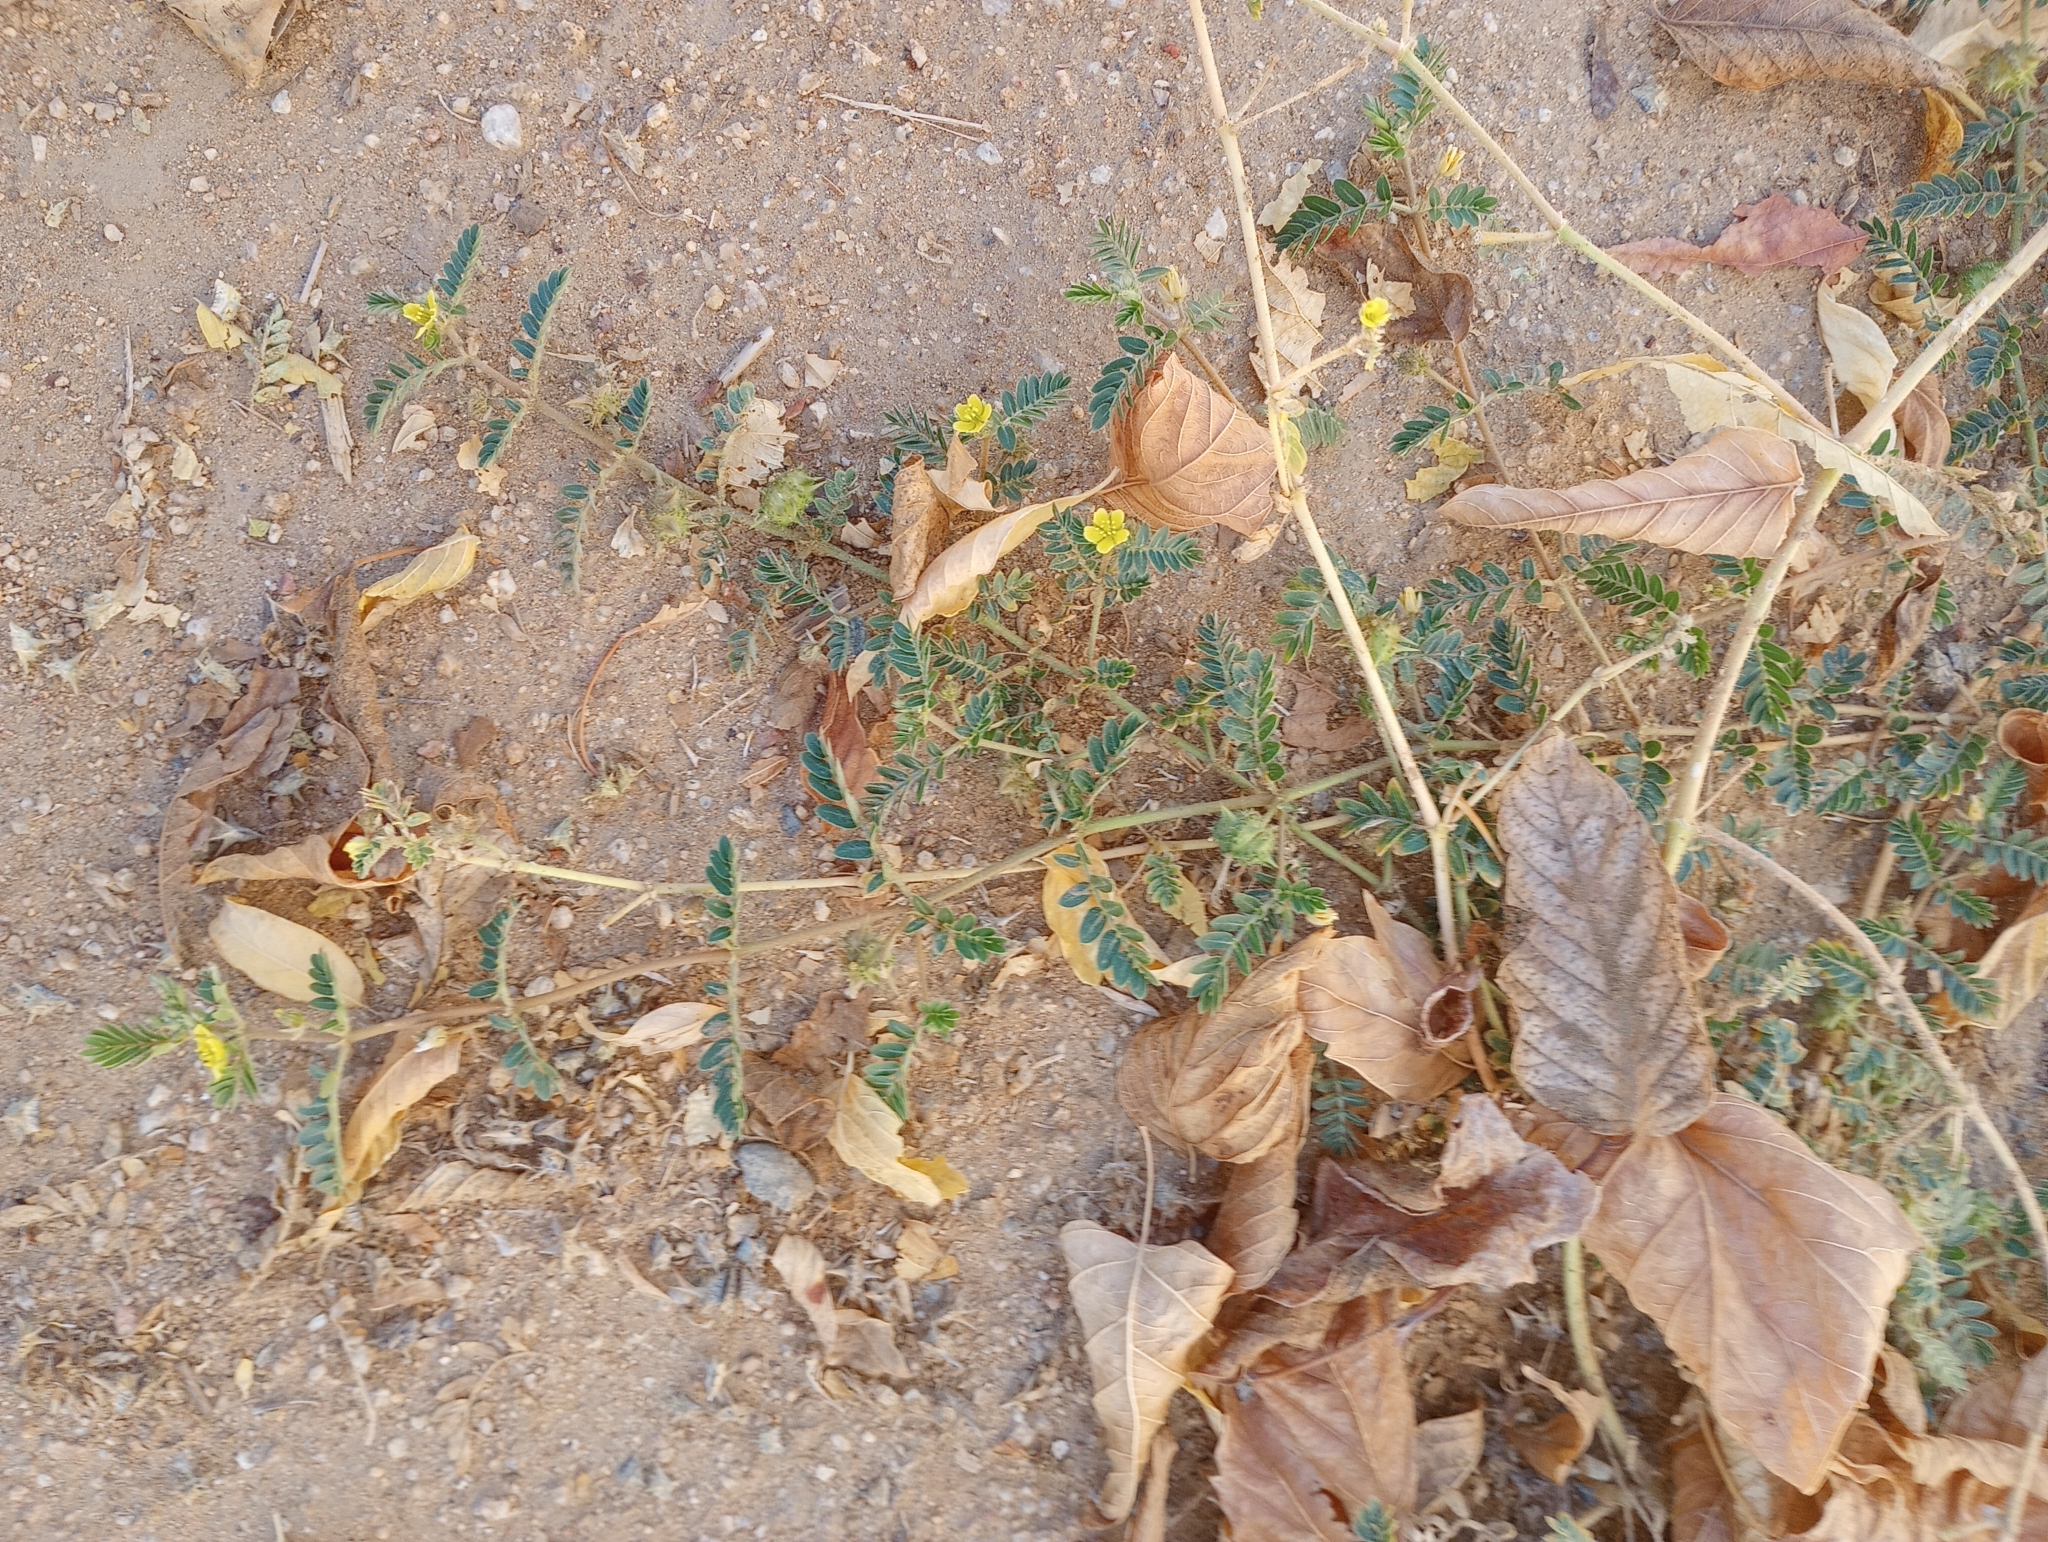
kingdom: Plantae
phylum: Tracheophyta
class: Magnoliopsida
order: Zygophyllales
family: Zygophyllaceae
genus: Tribulus
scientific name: Tribulus terrestris
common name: Puncturevine
